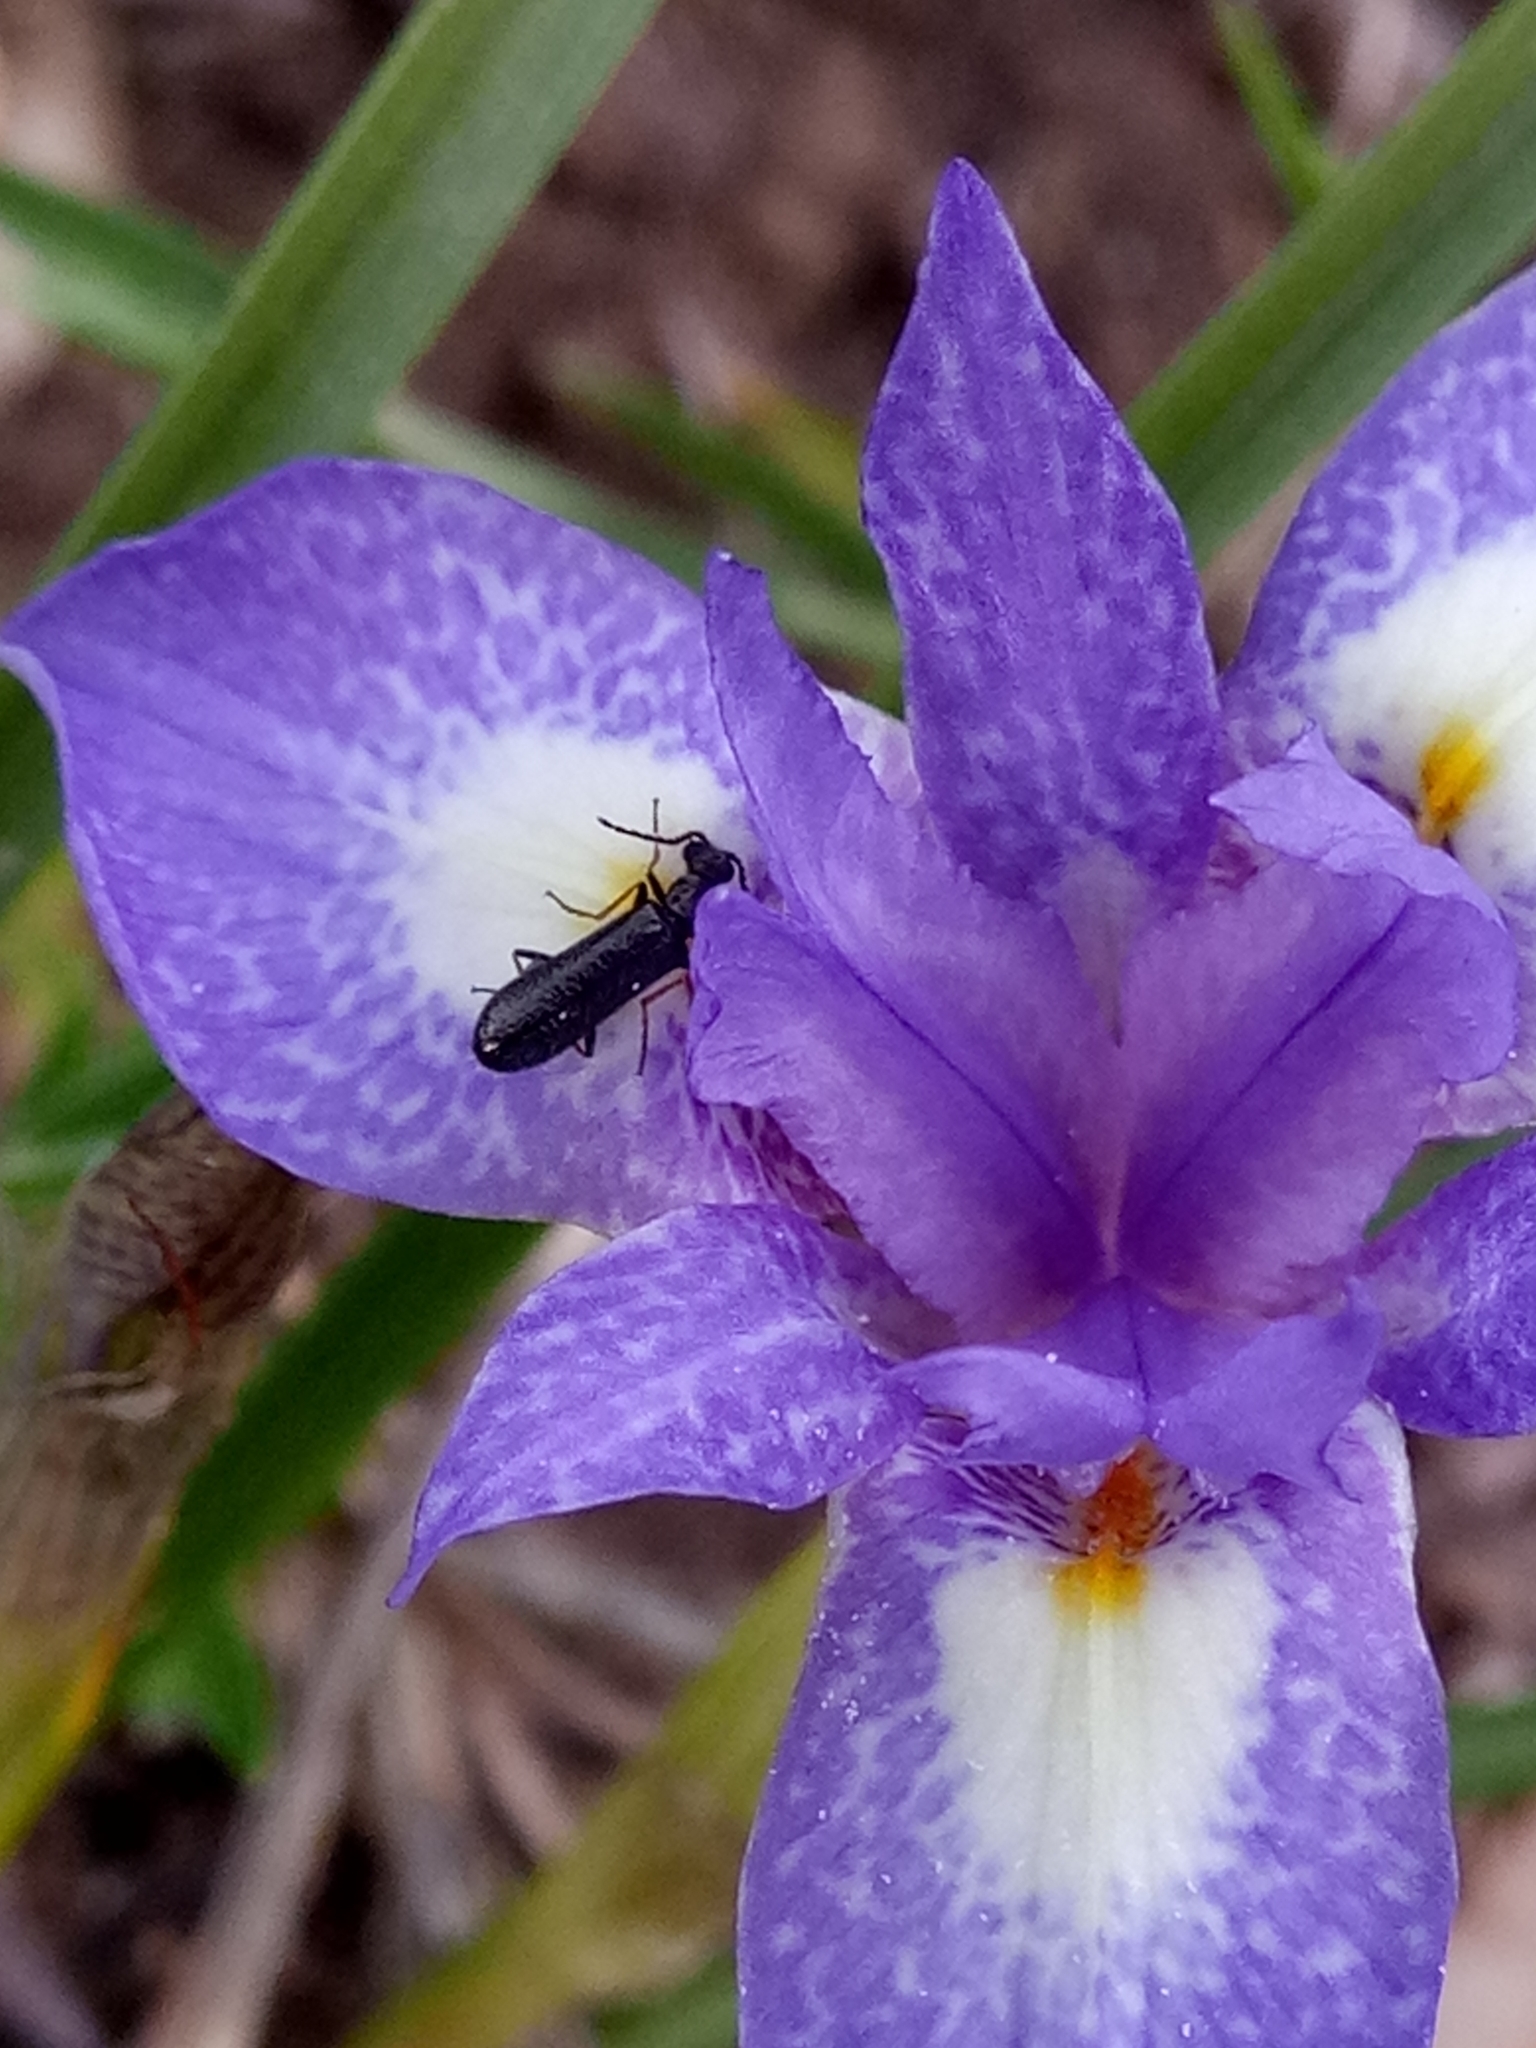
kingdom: Plantae
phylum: Tracheophyta
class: Liliopsida
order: Asparagales
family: Iridaceae
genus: Moraea
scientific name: Moraea sisyrinchium
